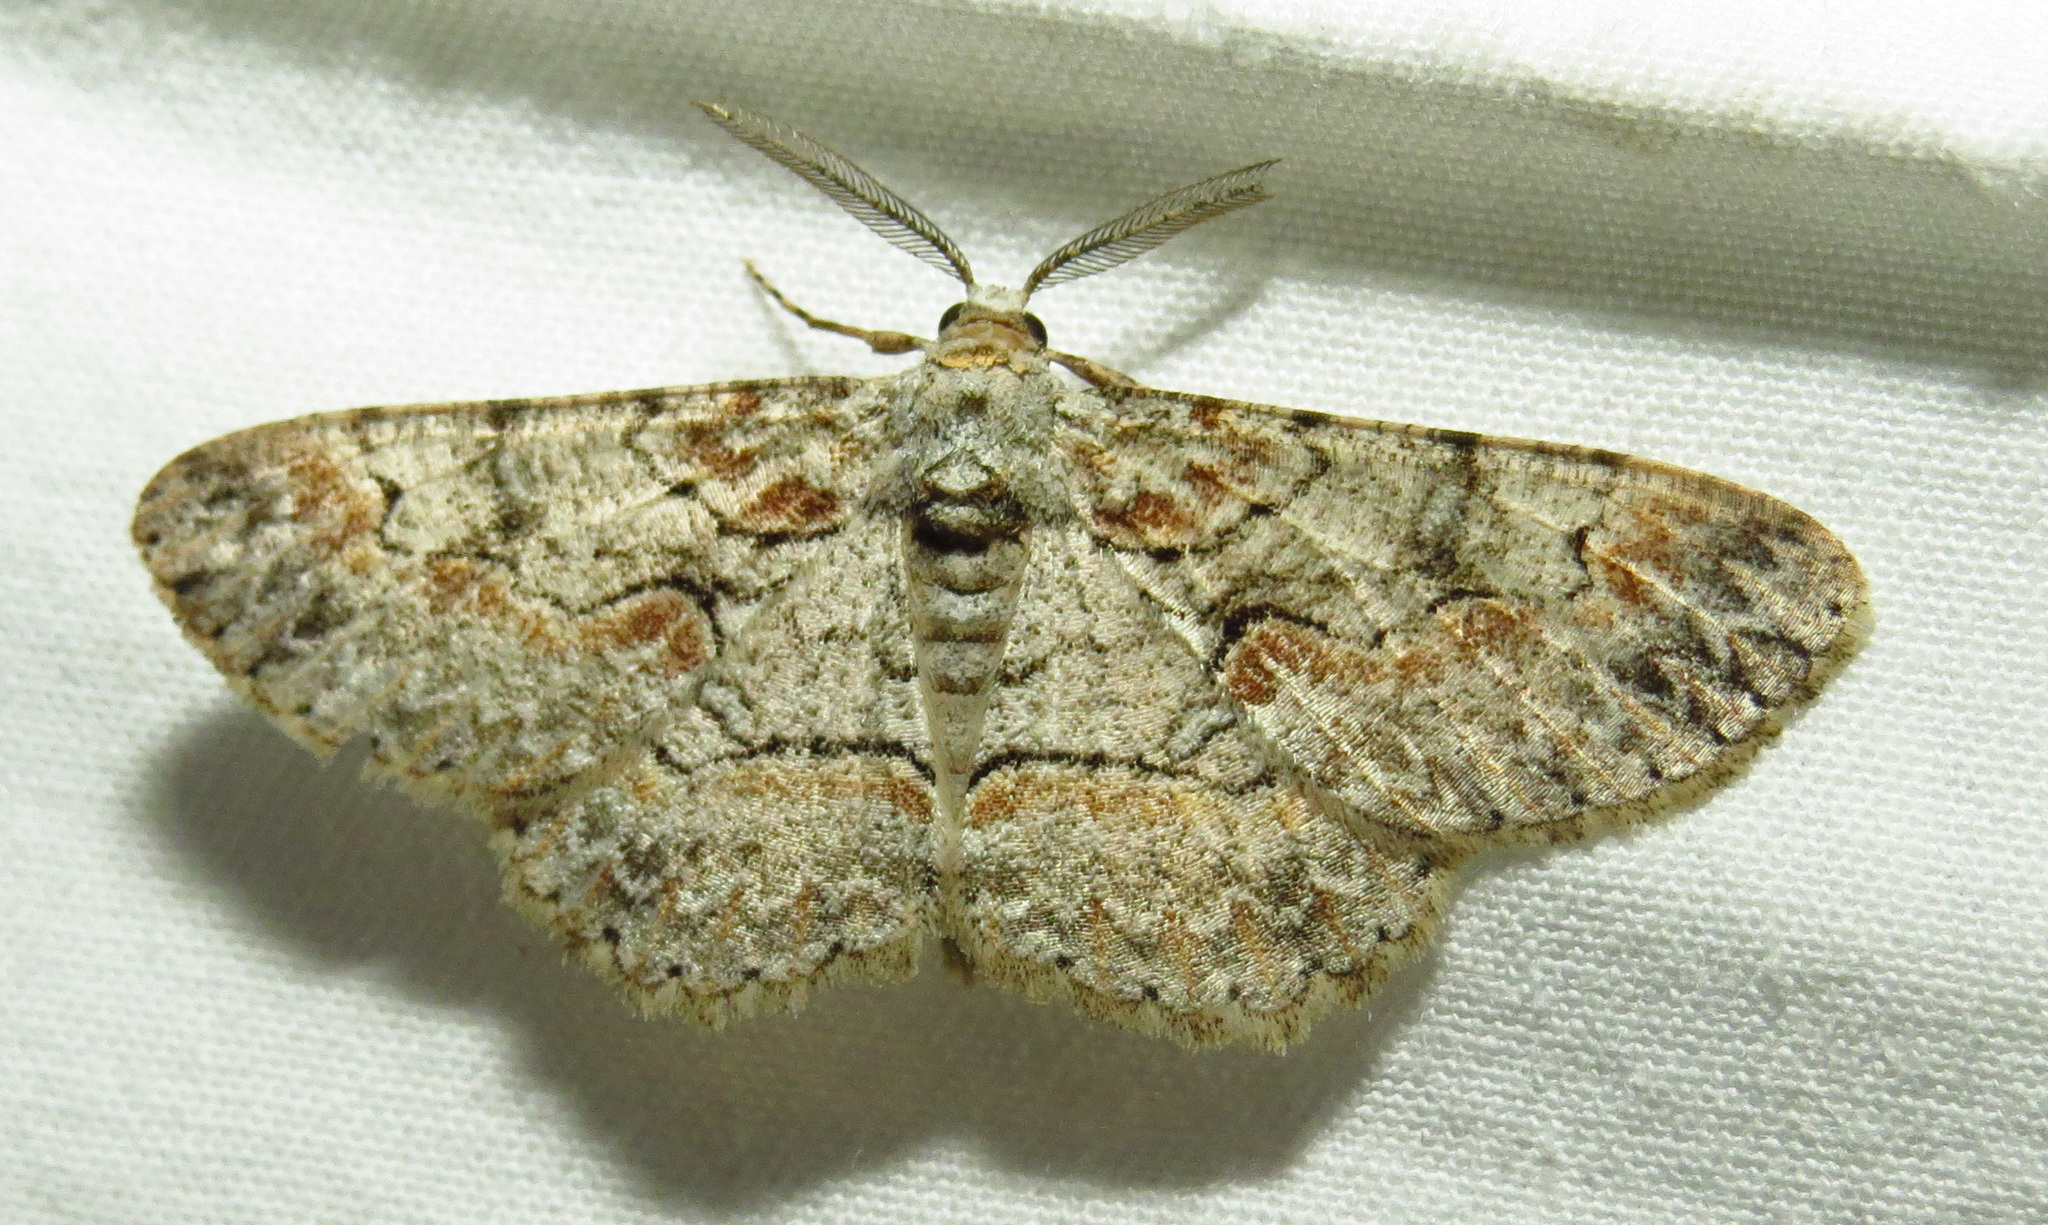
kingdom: Animalia
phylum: Arthropoda
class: Insecta
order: Lepidoptera
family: Geometridae
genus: Iridopsis
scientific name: Iridopsis defectaria
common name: Brown-shaded gray
